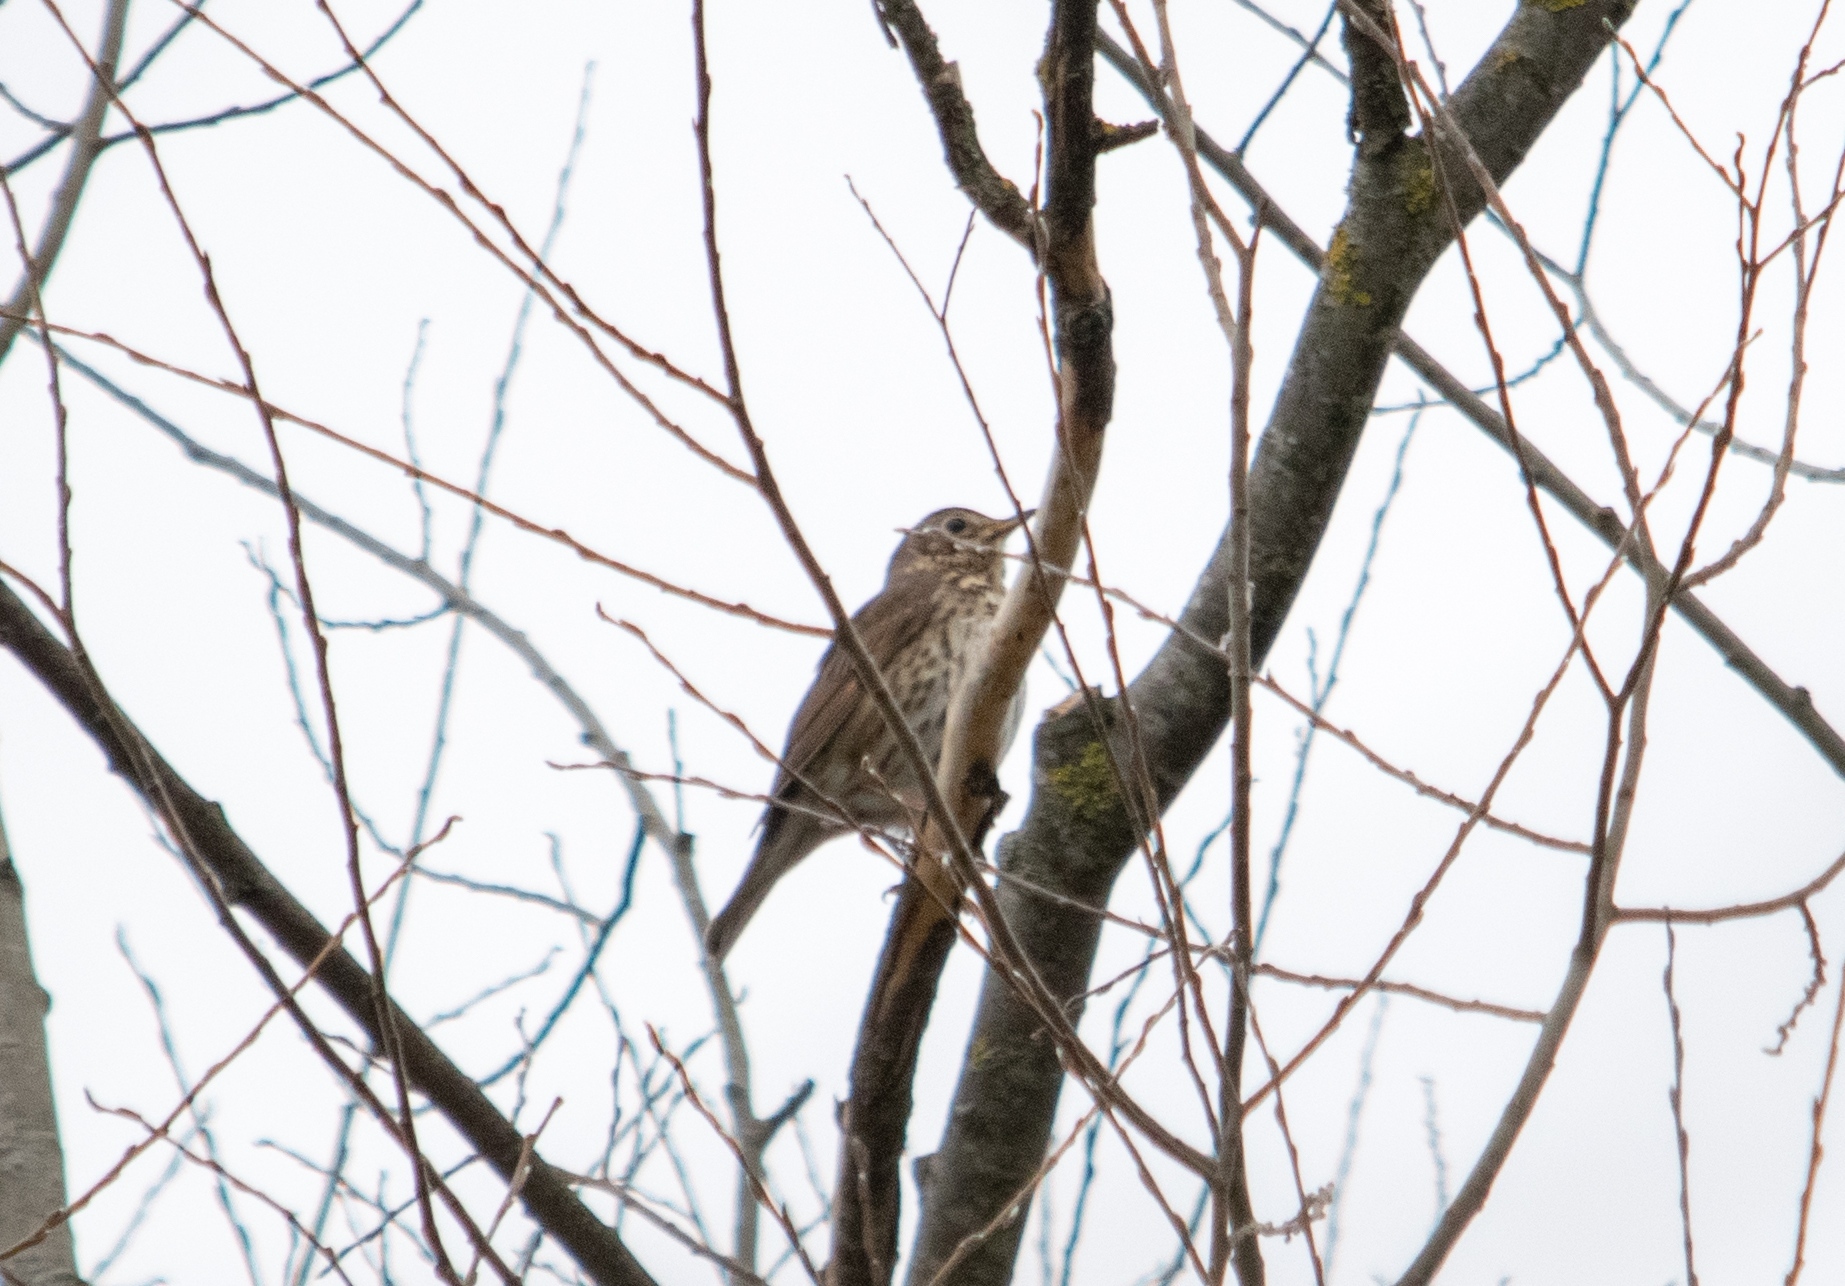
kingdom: Animalia
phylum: Chordata
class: Aves
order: Passeriformes
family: Turdidae
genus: Turdus
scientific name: Turdus philomelos
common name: Song thrush
